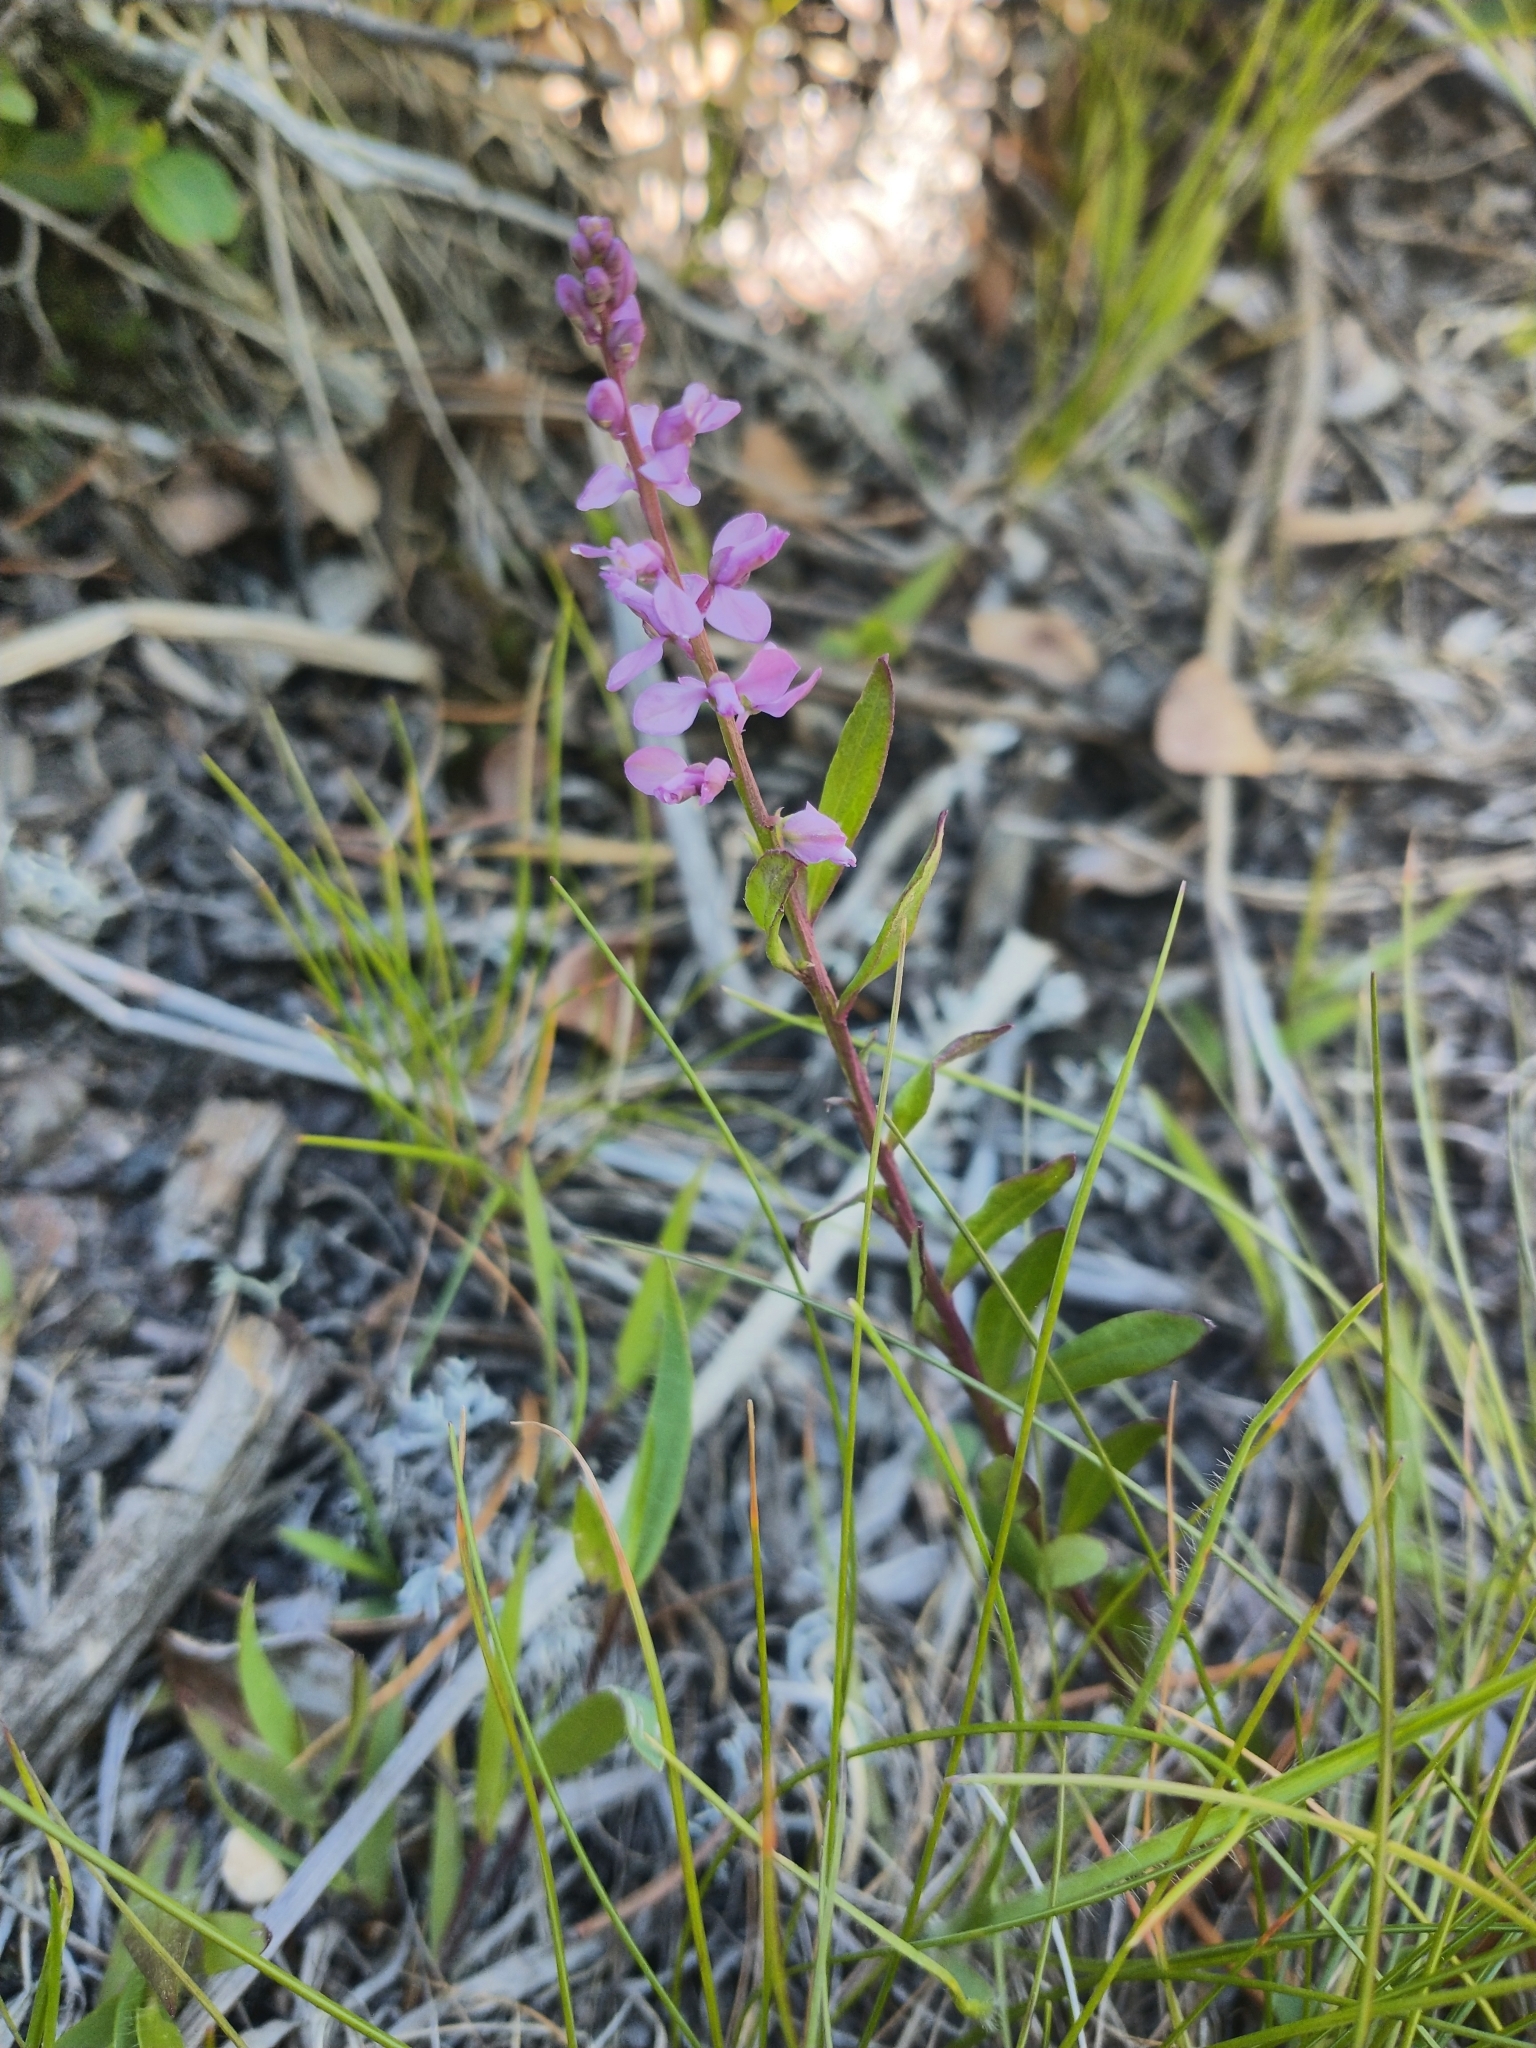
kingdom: Plantae
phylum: Tracheophyta
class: Magnoliopsida
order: Fabales
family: Polygalaceae
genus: Polygala
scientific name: Polygala polygama
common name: Bitter milkwort
